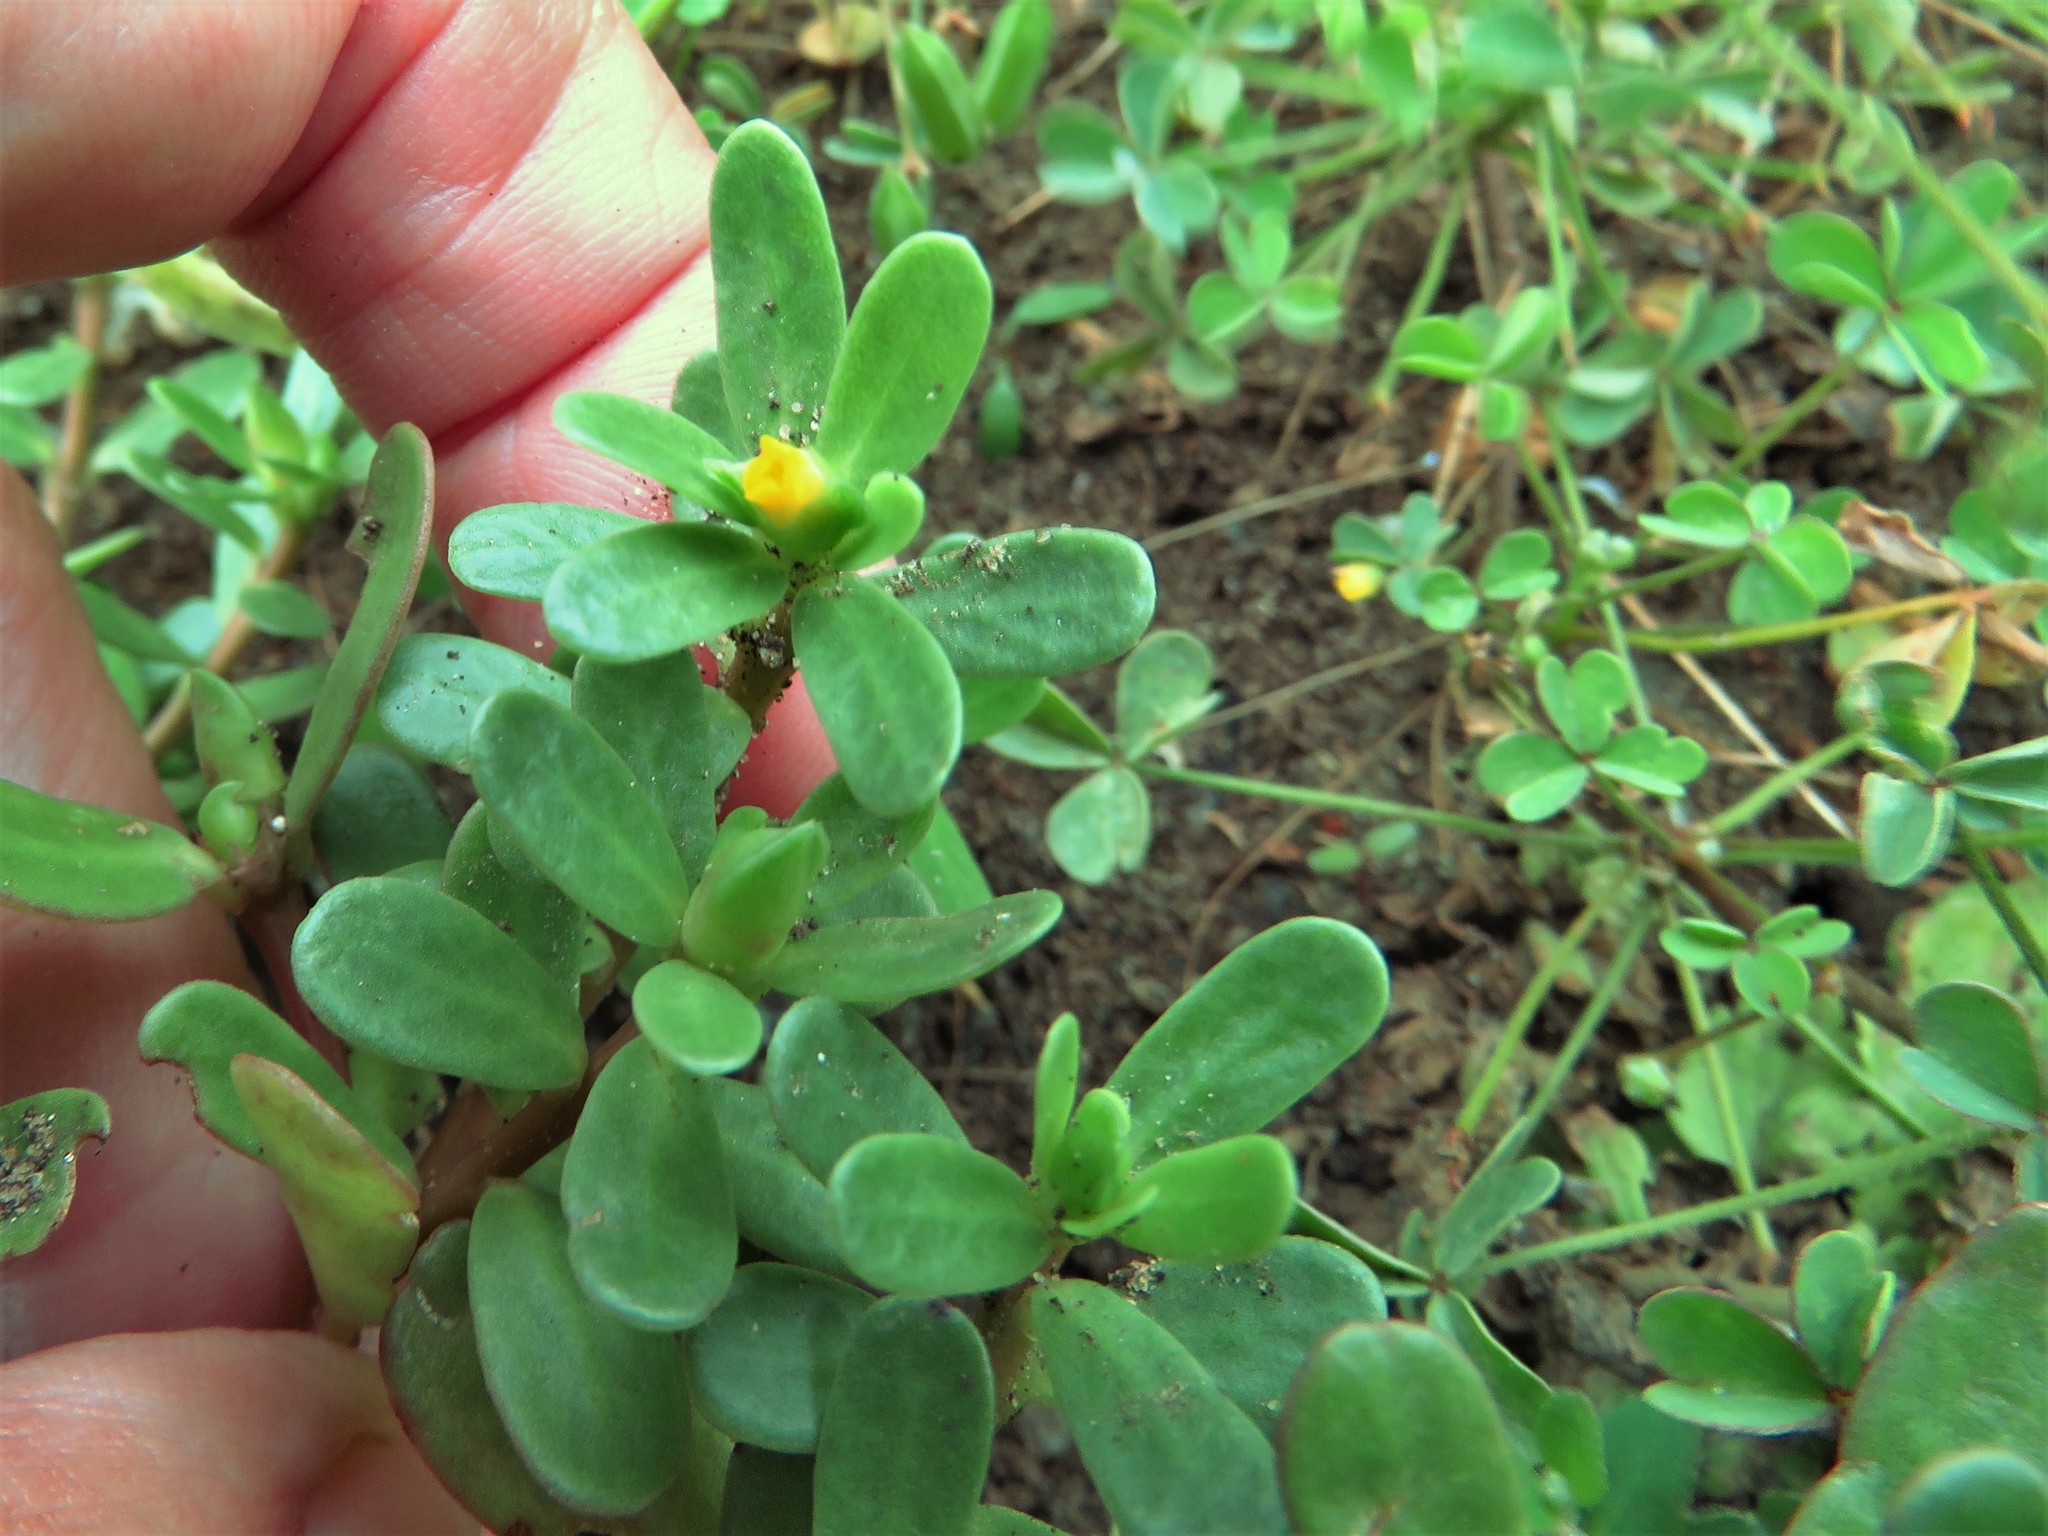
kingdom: Plantae
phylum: Tracheophyta
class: Magnoliopsida
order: Caryophyllales
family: Portulacaceae
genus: Portulaca
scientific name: Portulaca oleracea
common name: Common purslane
